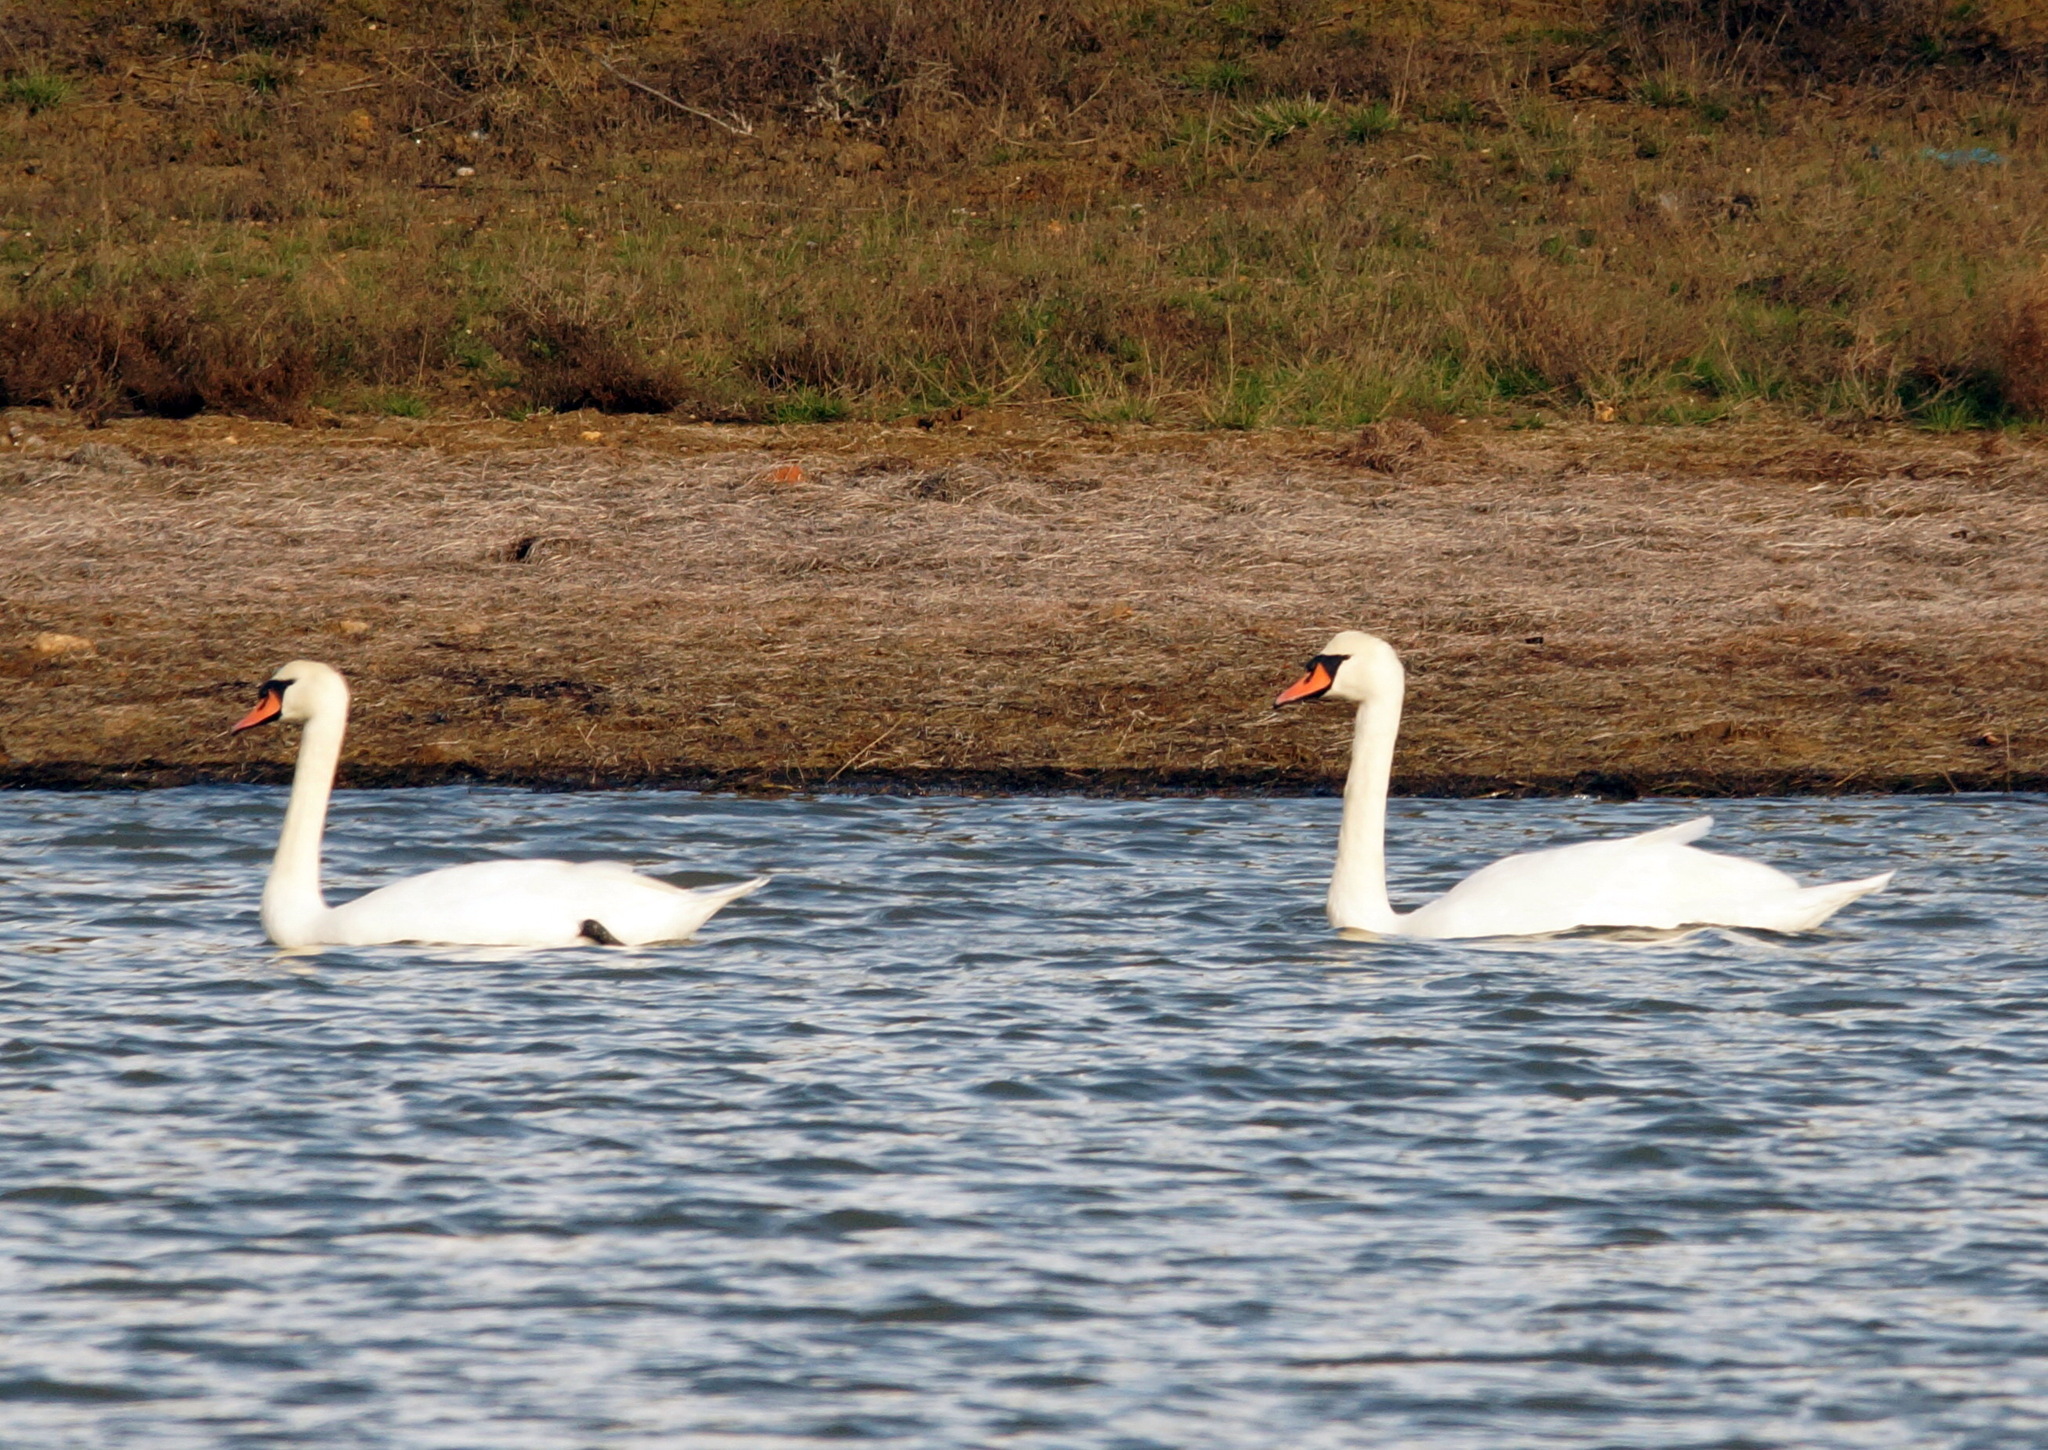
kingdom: Animalia
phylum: Chordata
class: Aves
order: Anseriformes
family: Anatidae
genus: Cygnus
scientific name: Cygnus olor
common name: Mute swan
